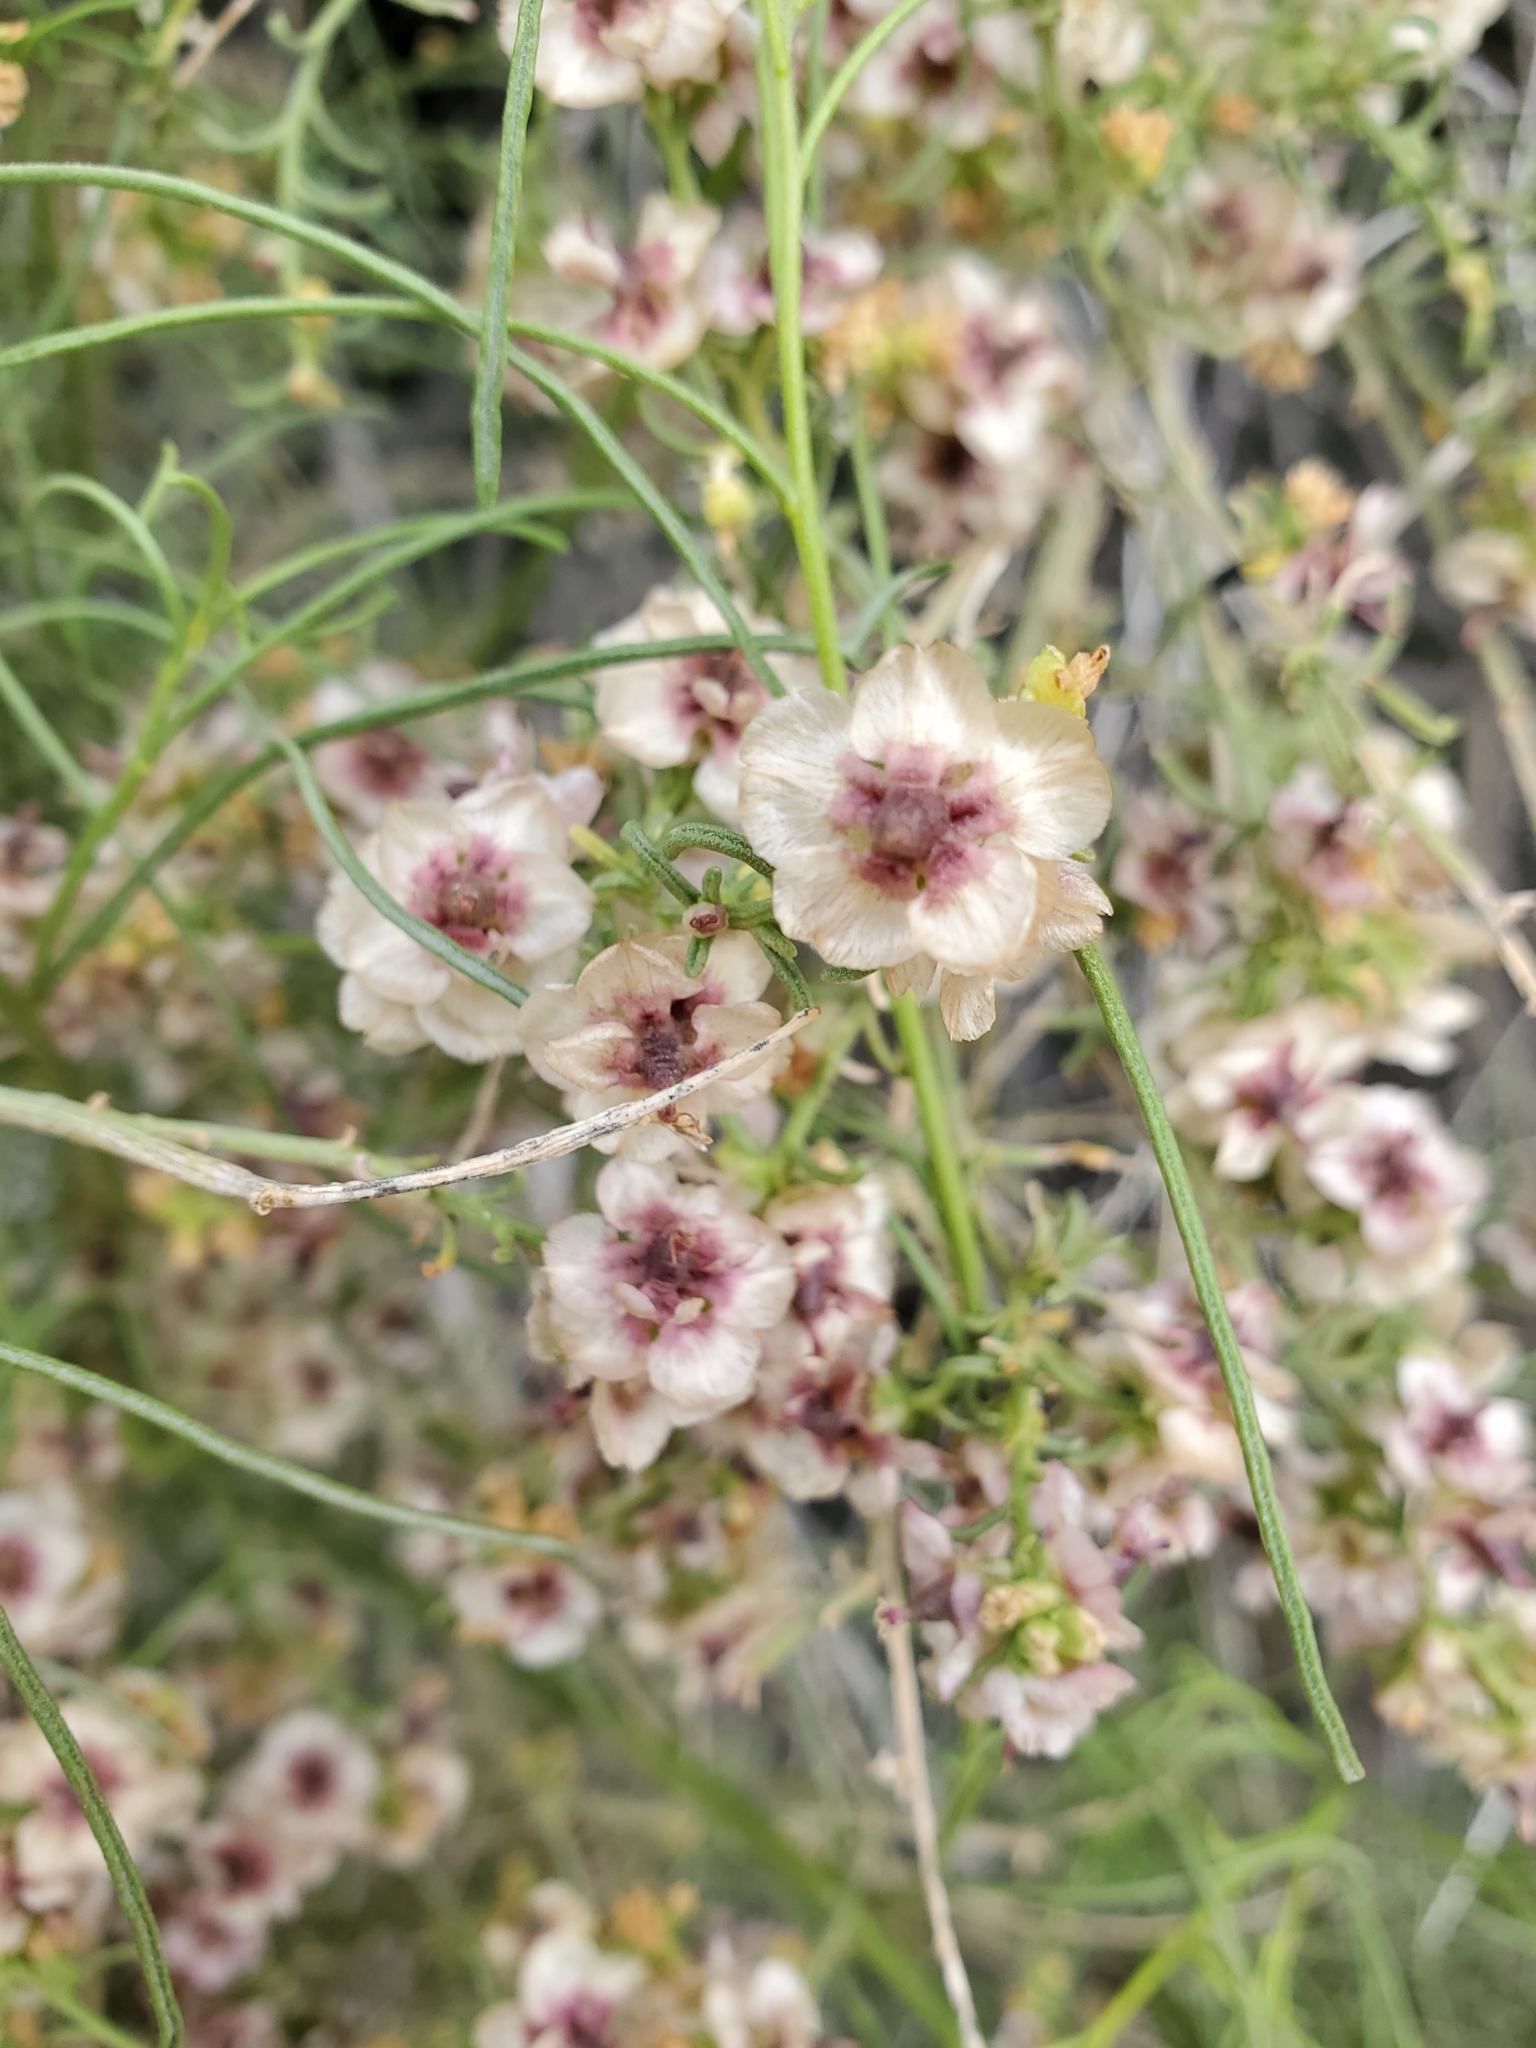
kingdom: Plantae
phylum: Tracheophyta
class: Magnoliopsida
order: Asterales
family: Asteraceae
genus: Ambrosia
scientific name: Ambrosia salsola
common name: Burrobrush
